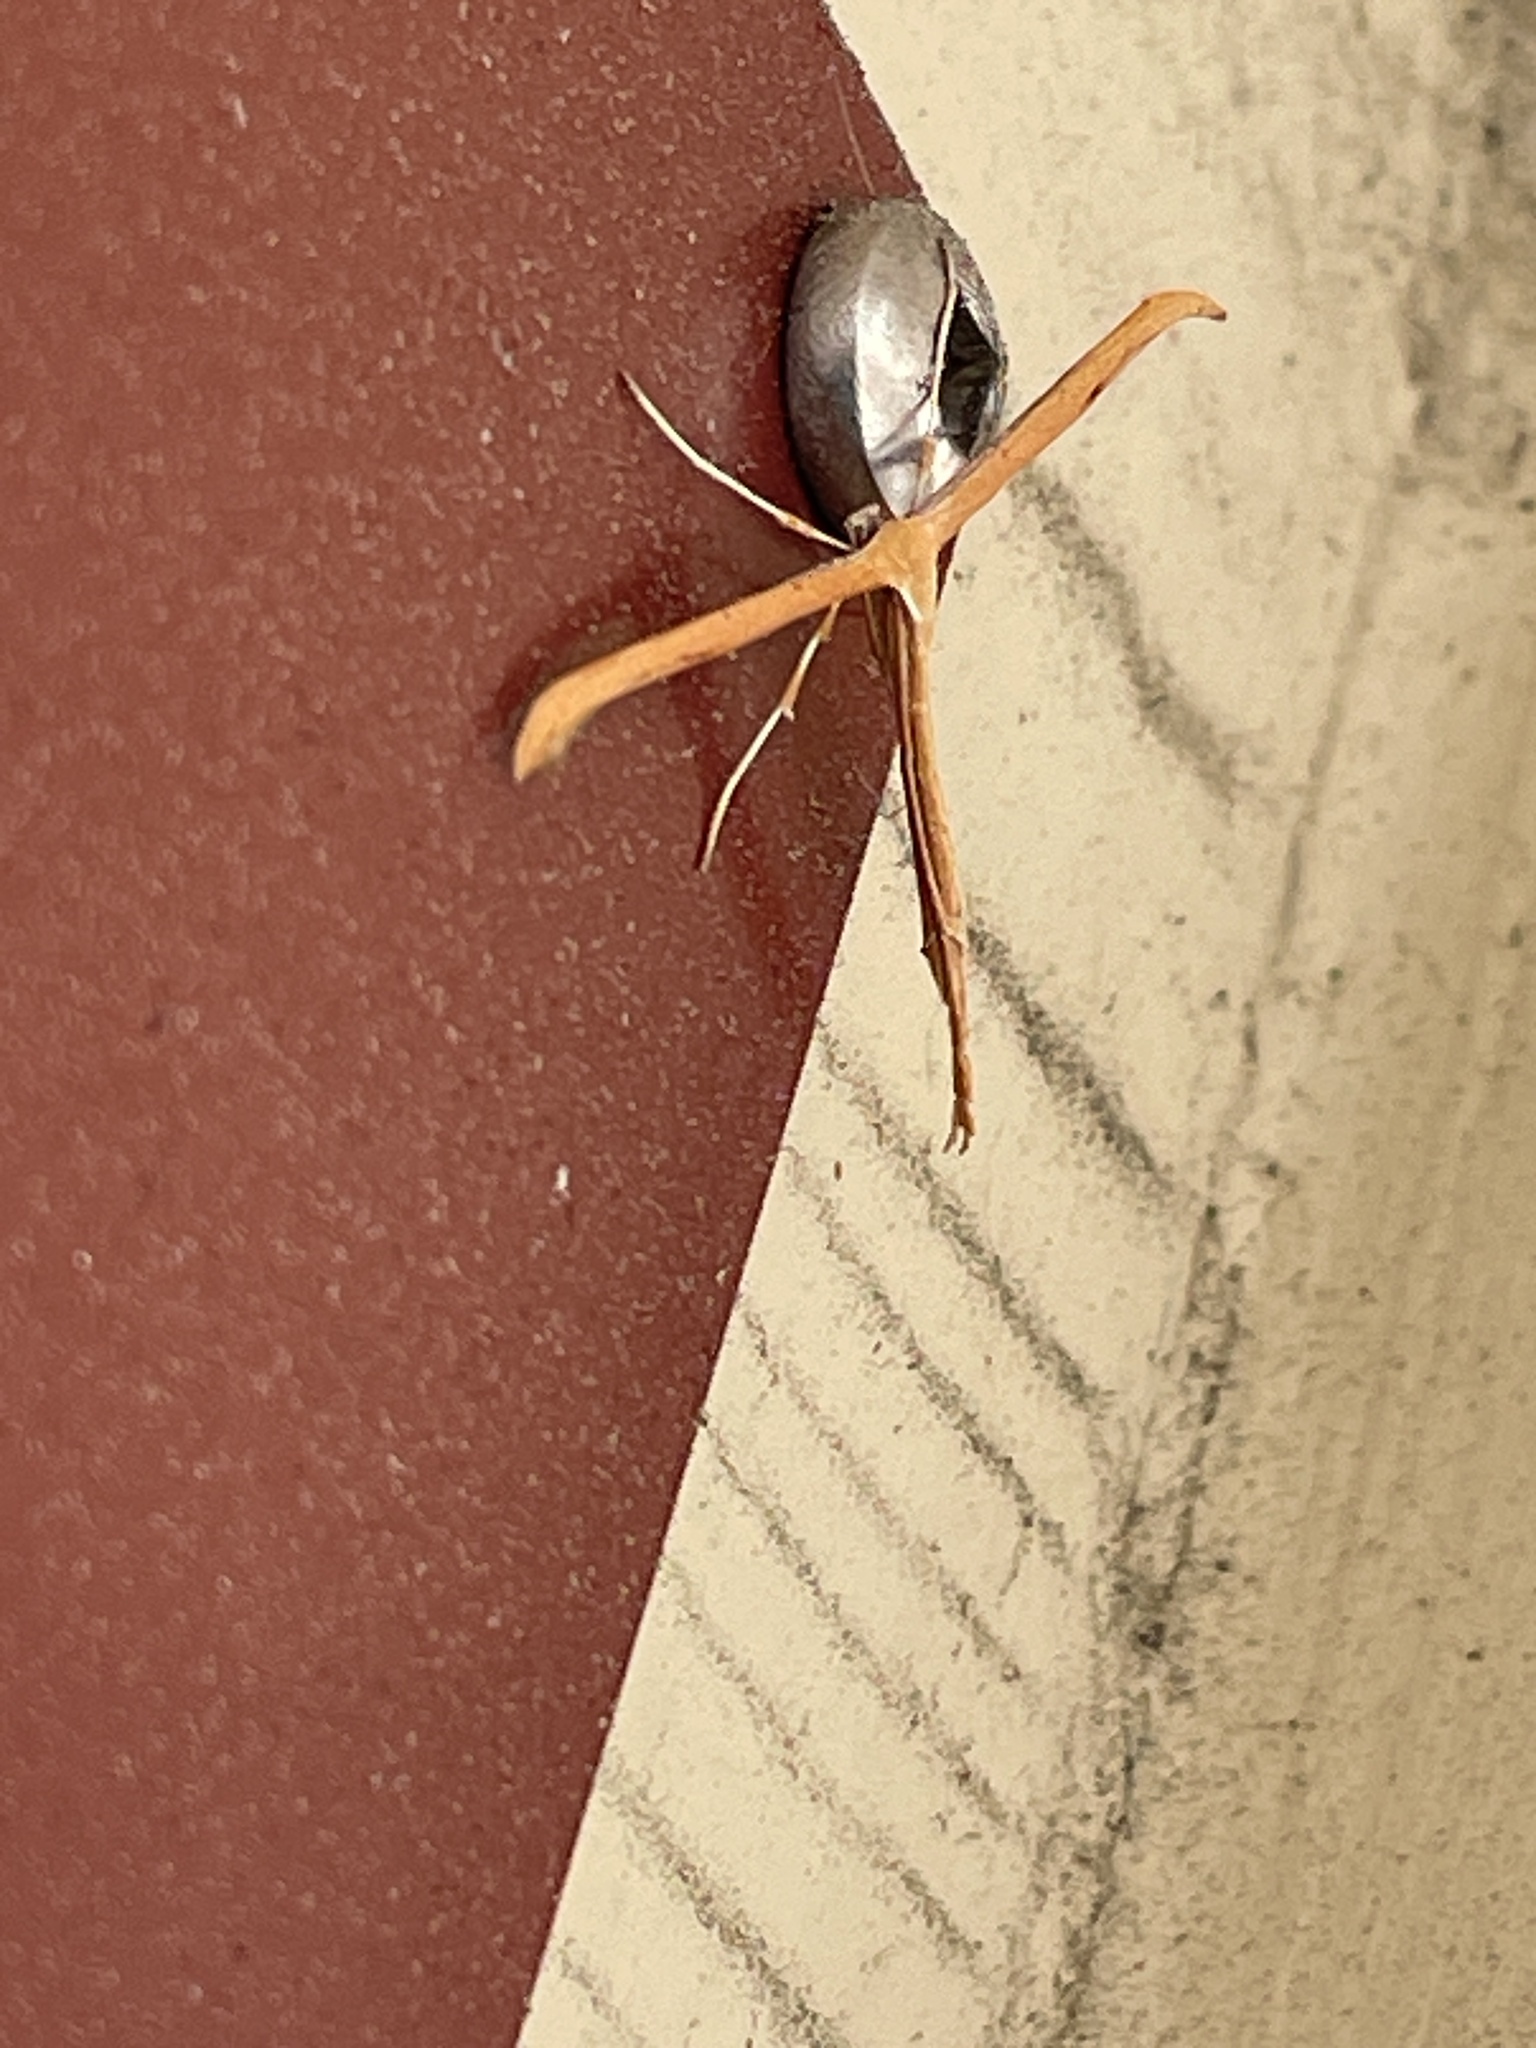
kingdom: Animalia
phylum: Arthropoda
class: Insecta
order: Lepidoptera
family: Pterophoridae
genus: Emmelina
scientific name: Emmelina monodactyla
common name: Common plume
